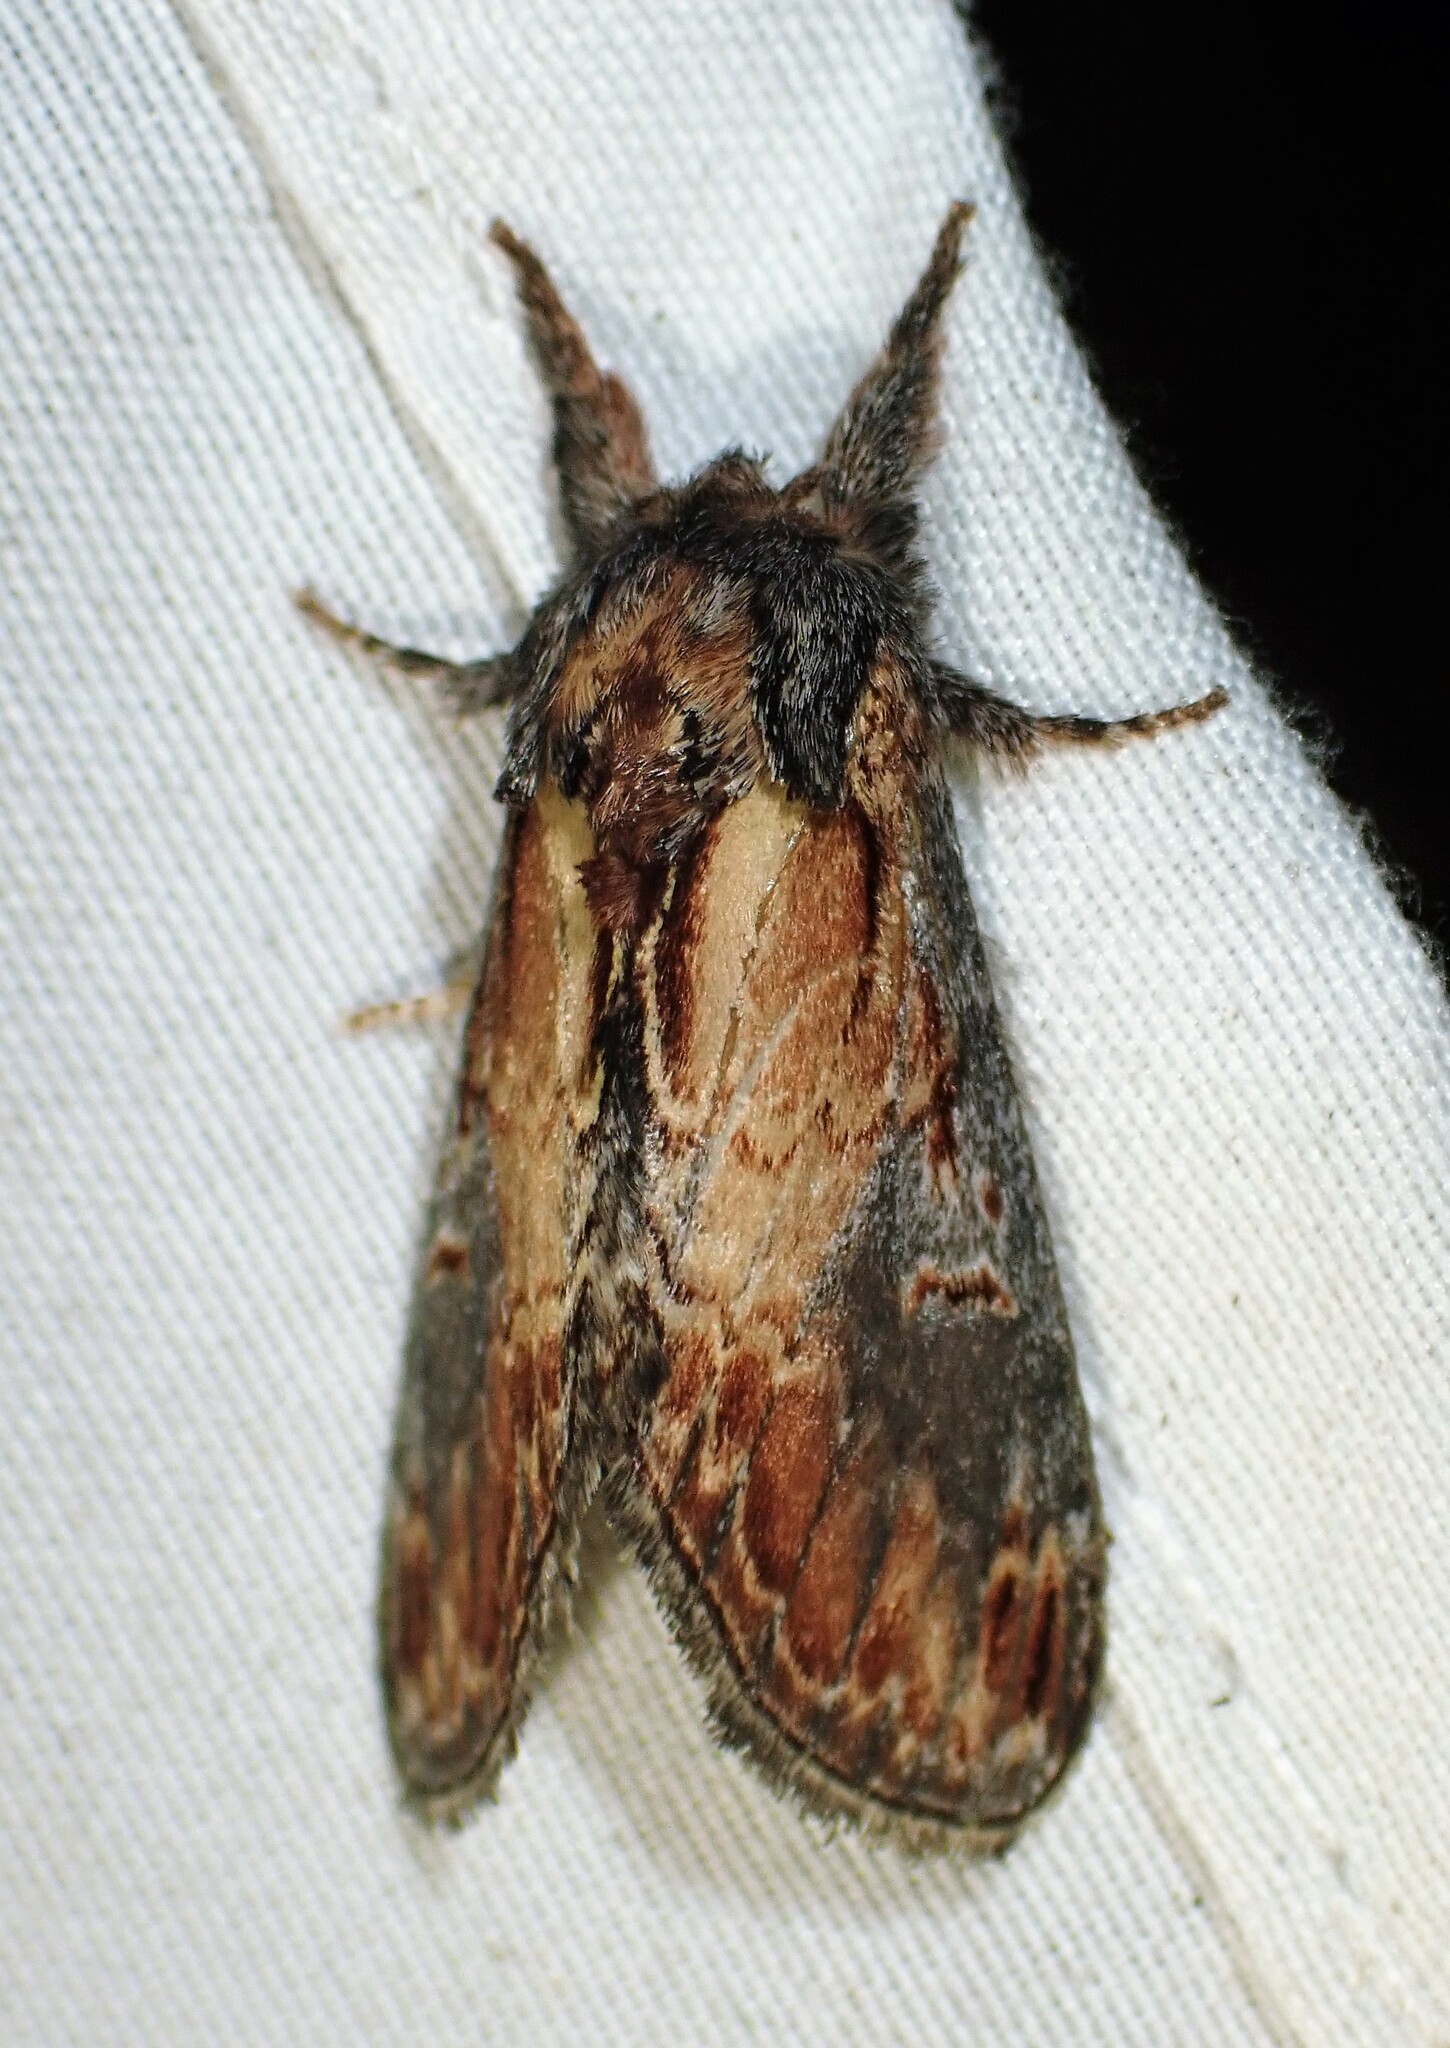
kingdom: Animalia
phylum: Arthropoda
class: Insecta
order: Lepidoptera
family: Notodontidae
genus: Notodonta
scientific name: Notodonta scitipennis
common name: Finned-willow prominent moth
